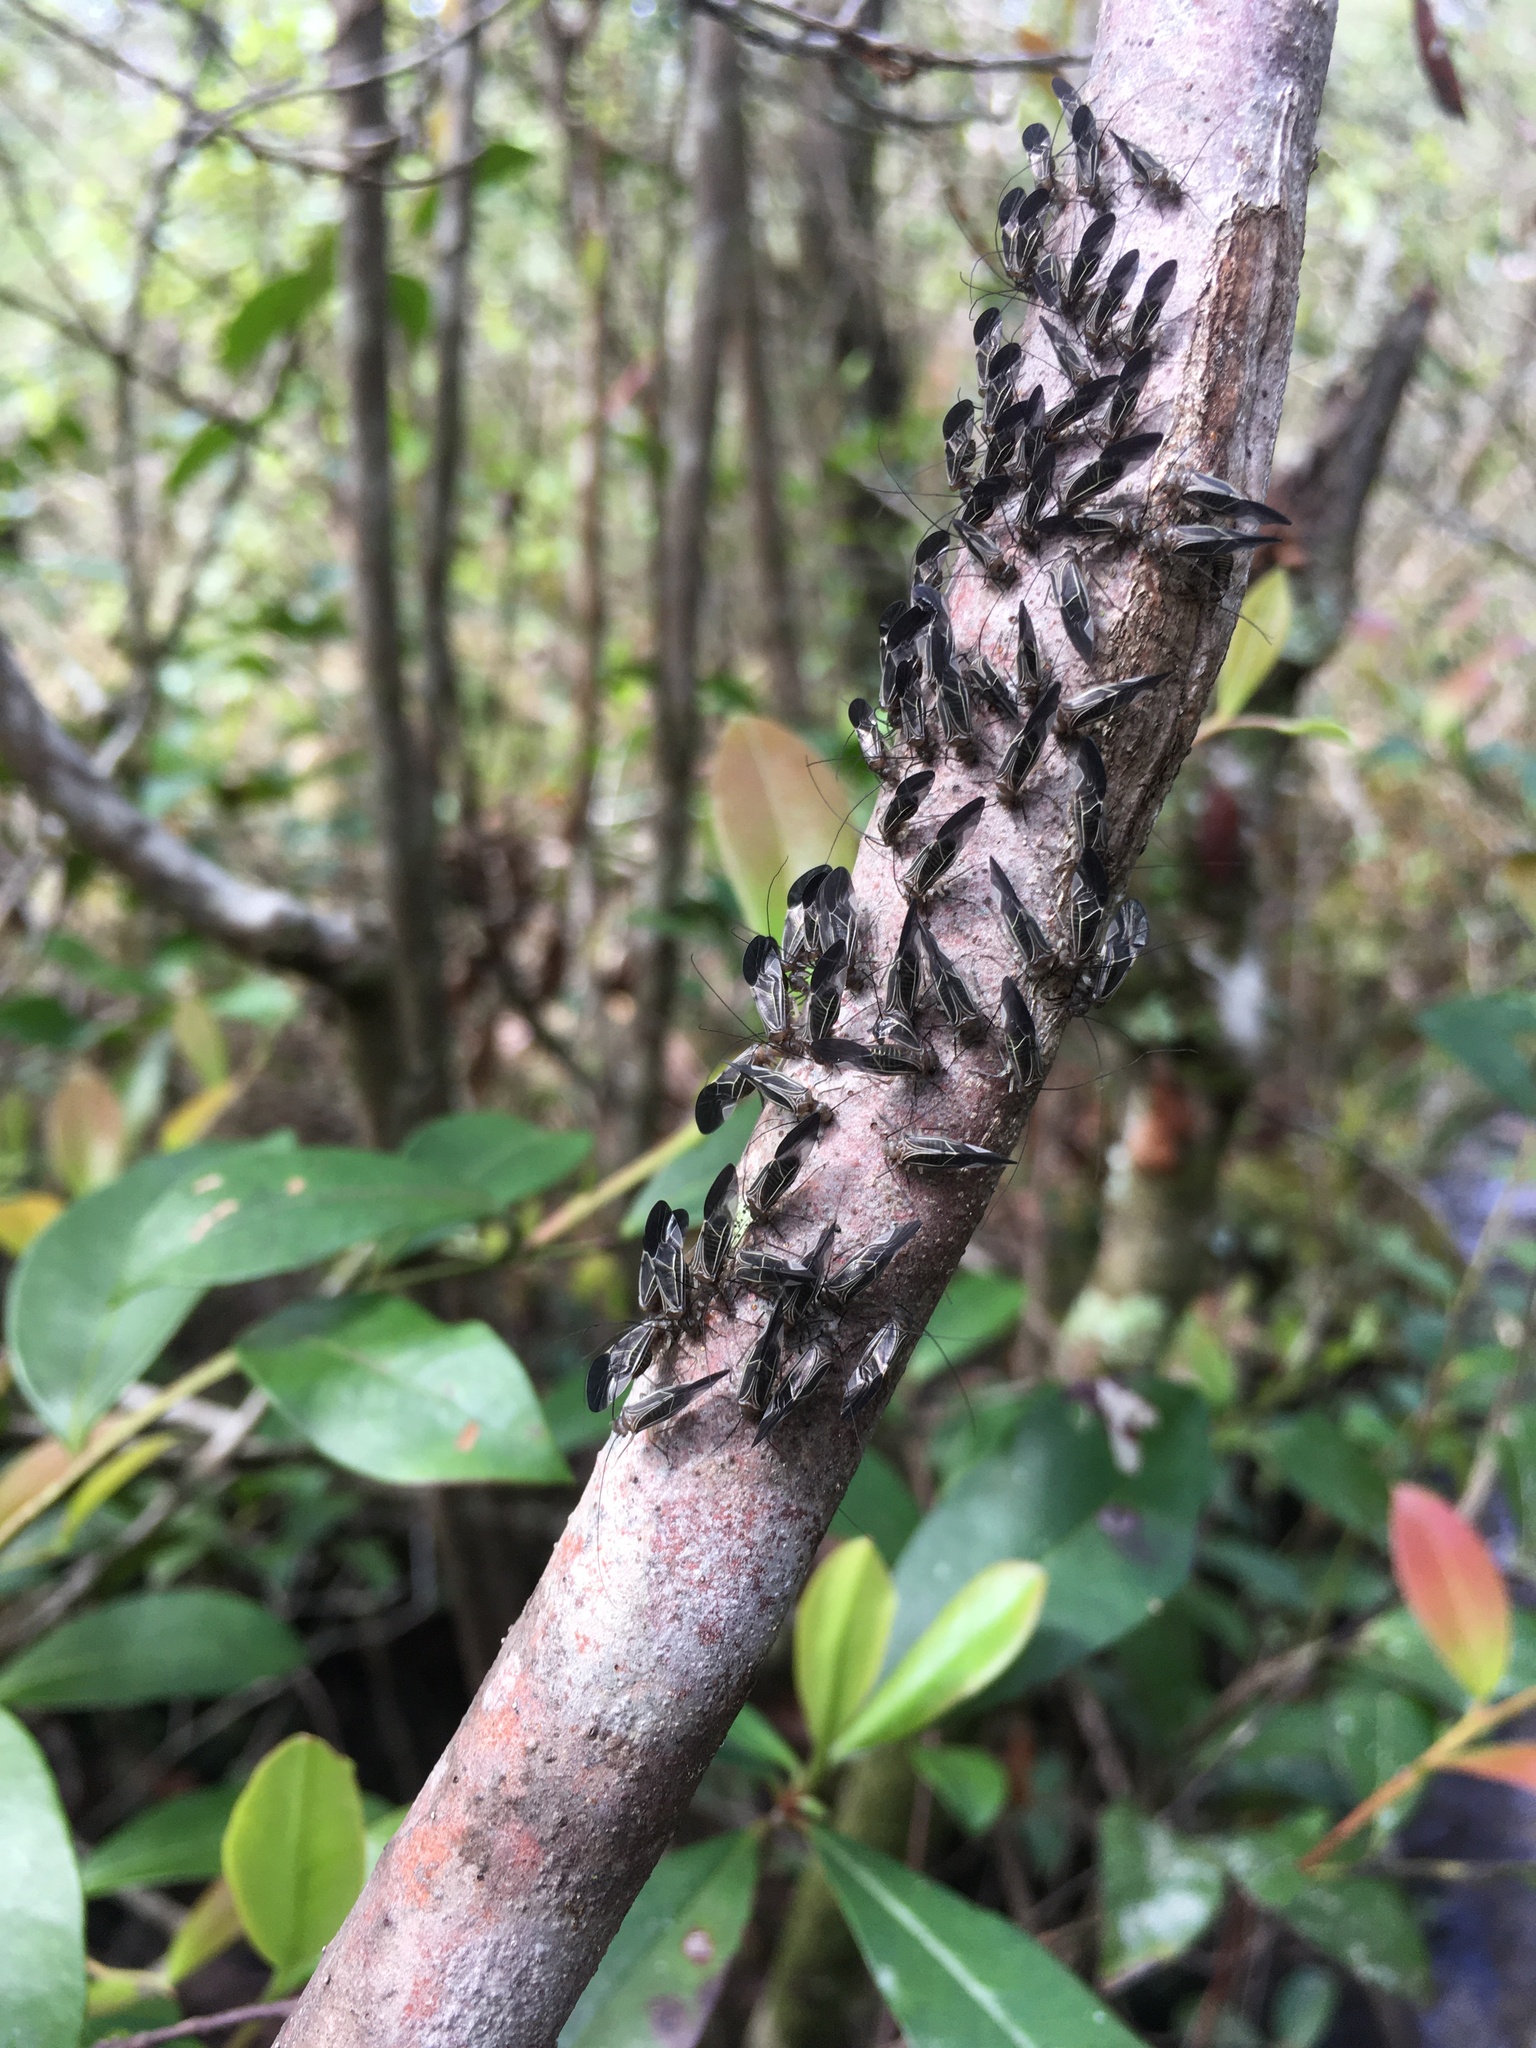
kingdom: Animalia
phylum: Arthropoda
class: Insecta
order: Psocodea
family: Psocidae
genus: Cerastipsocus
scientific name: Cerastipsocus venosus
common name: Tree cattle
